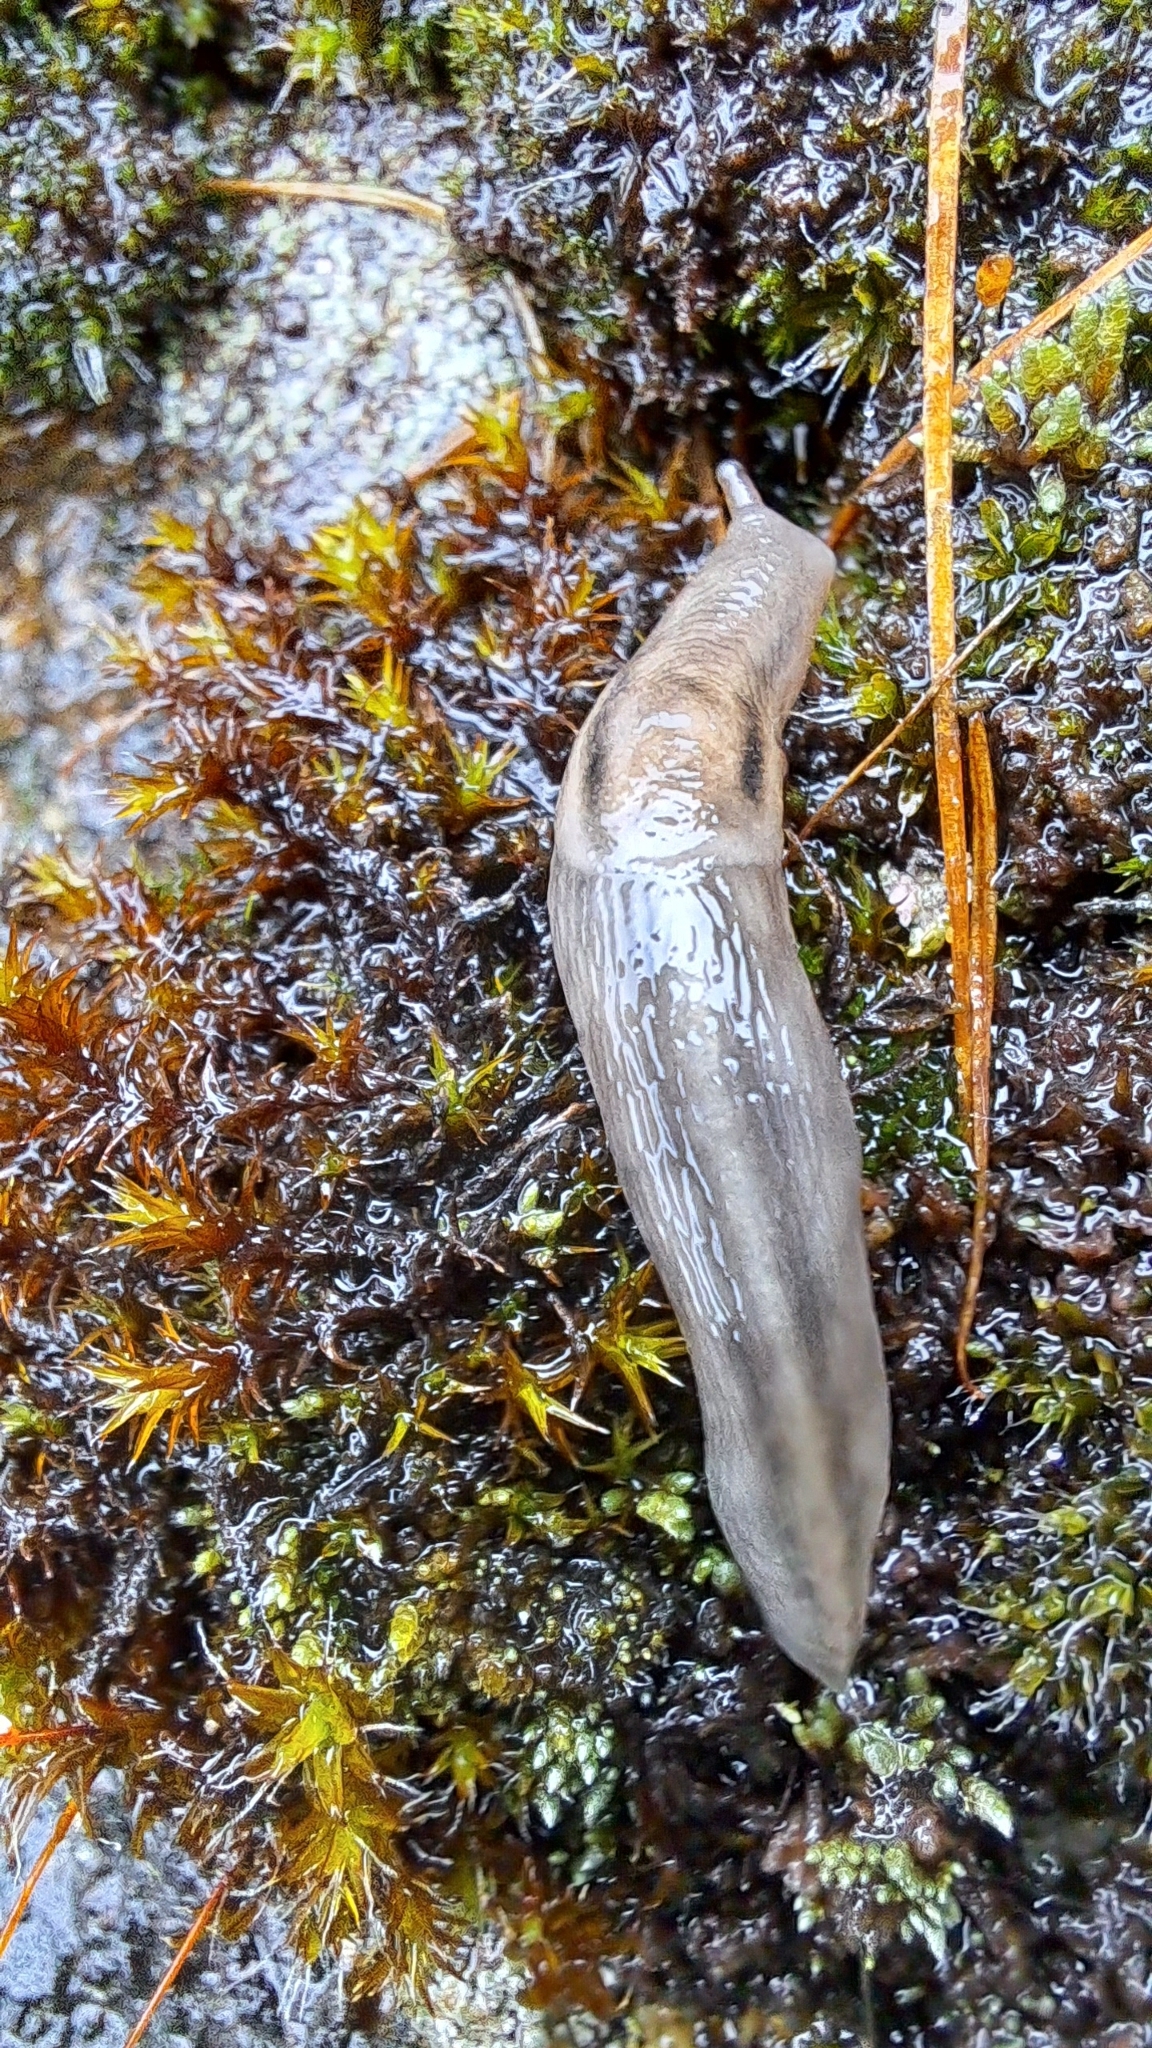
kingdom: Animalia
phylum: Mollusca
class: Gastropoda
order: Stylommatophora
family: Limacidae
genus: Lehmannia
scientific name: Lehmannia marginata
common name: Tree slug
